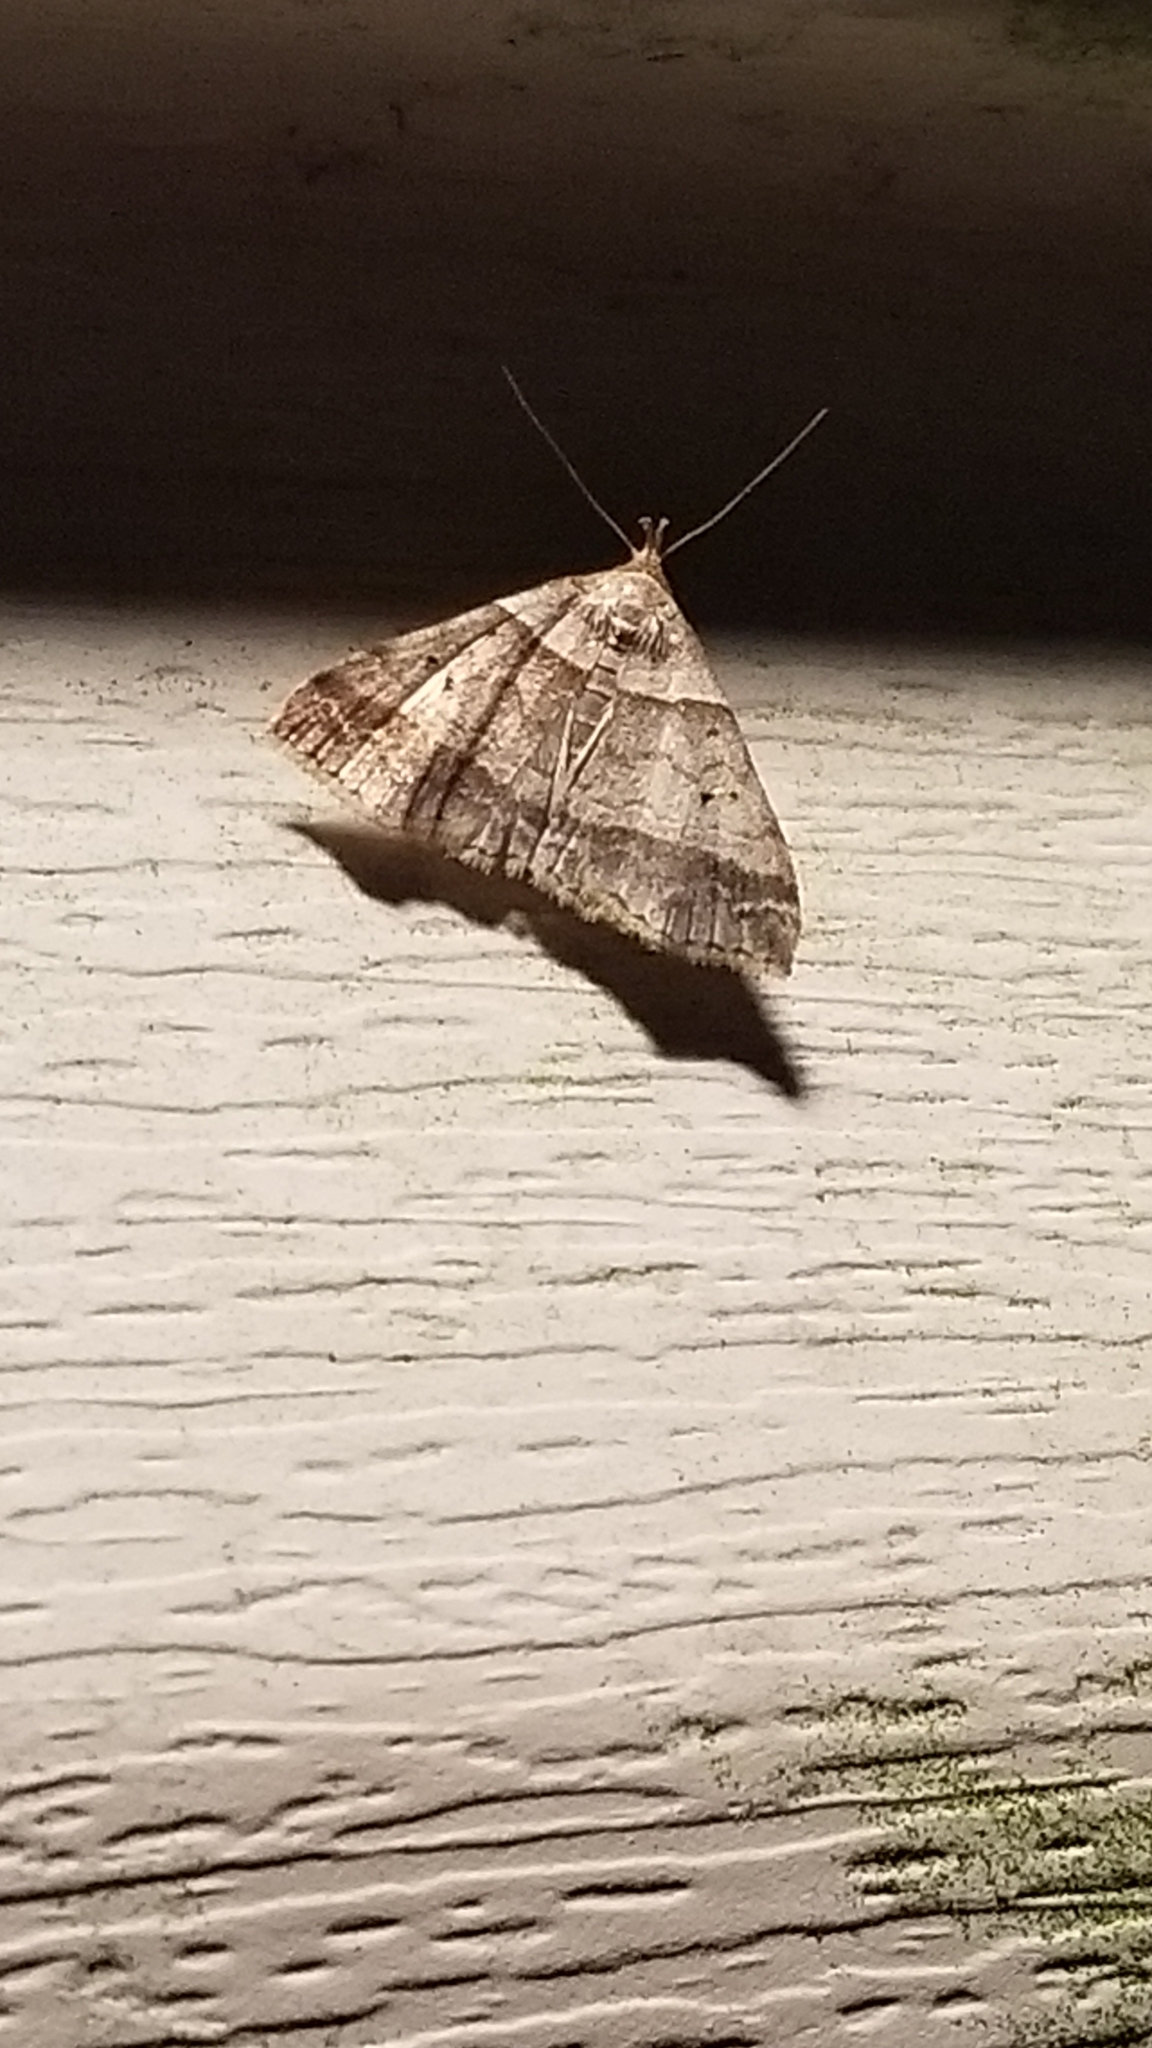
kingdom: Animalia
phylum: Arthropoda
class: Insecta
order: Lepidoptera
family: Erebidae
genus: Phaeolita
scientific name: Phaeolita pyramusalis
